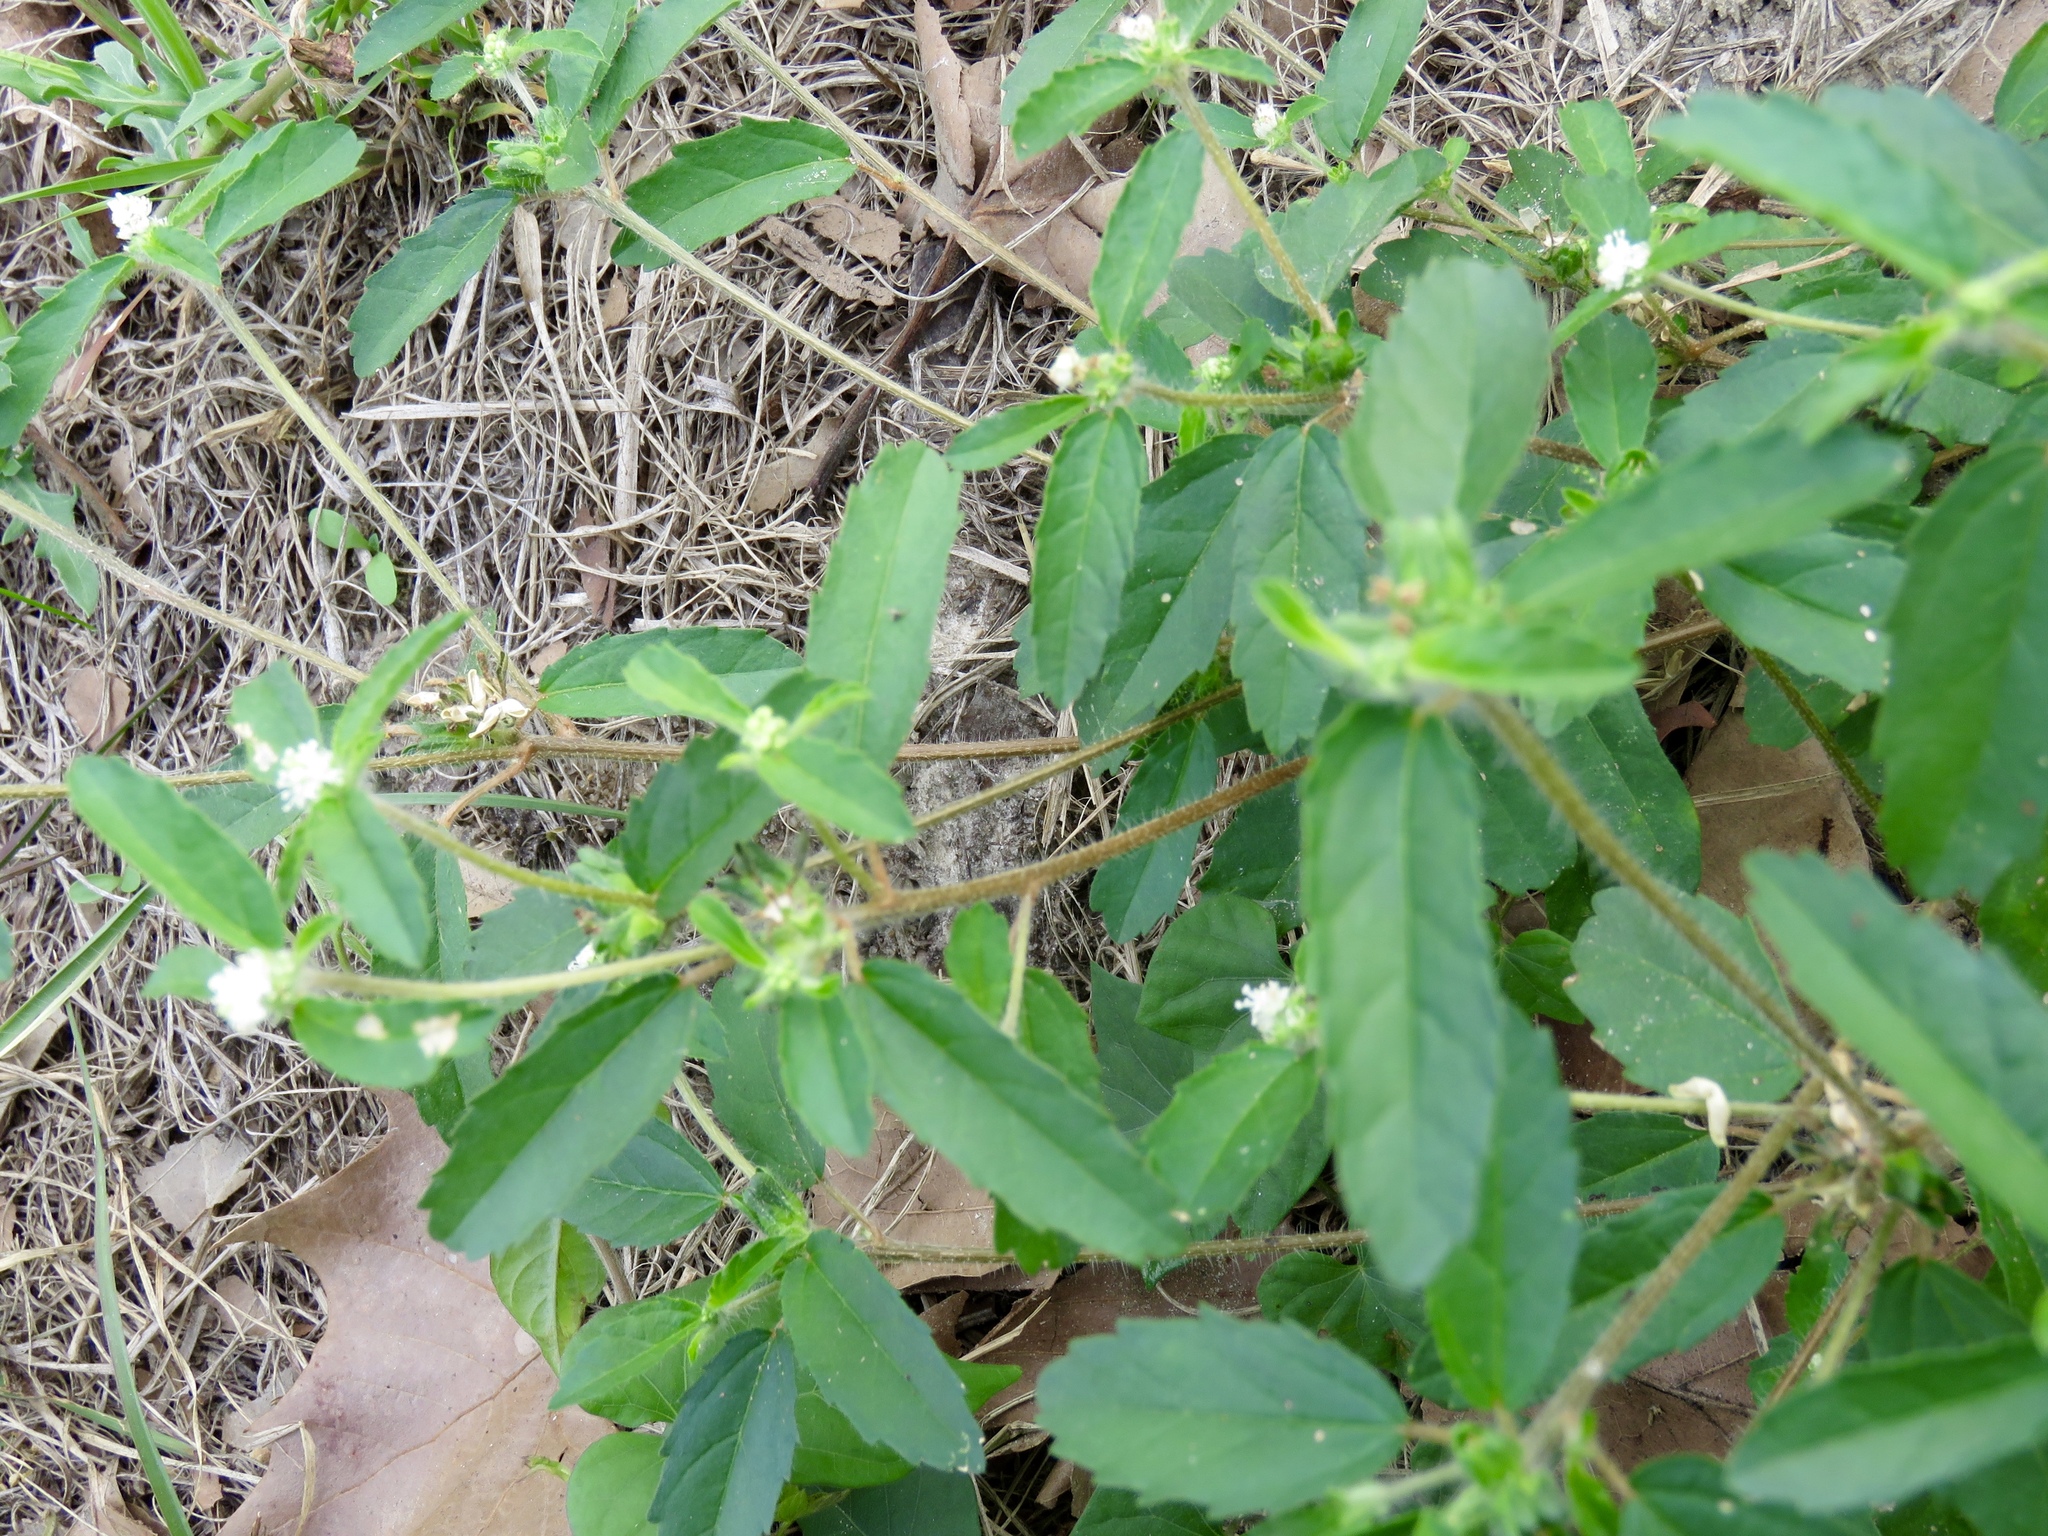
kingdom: Plantae
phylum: Tracheophyta
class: Magnoliopsida
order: Malpighiales
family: Euphorbiaceae
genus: Croton
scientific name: Croton glandulosus
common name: Tropic croton
